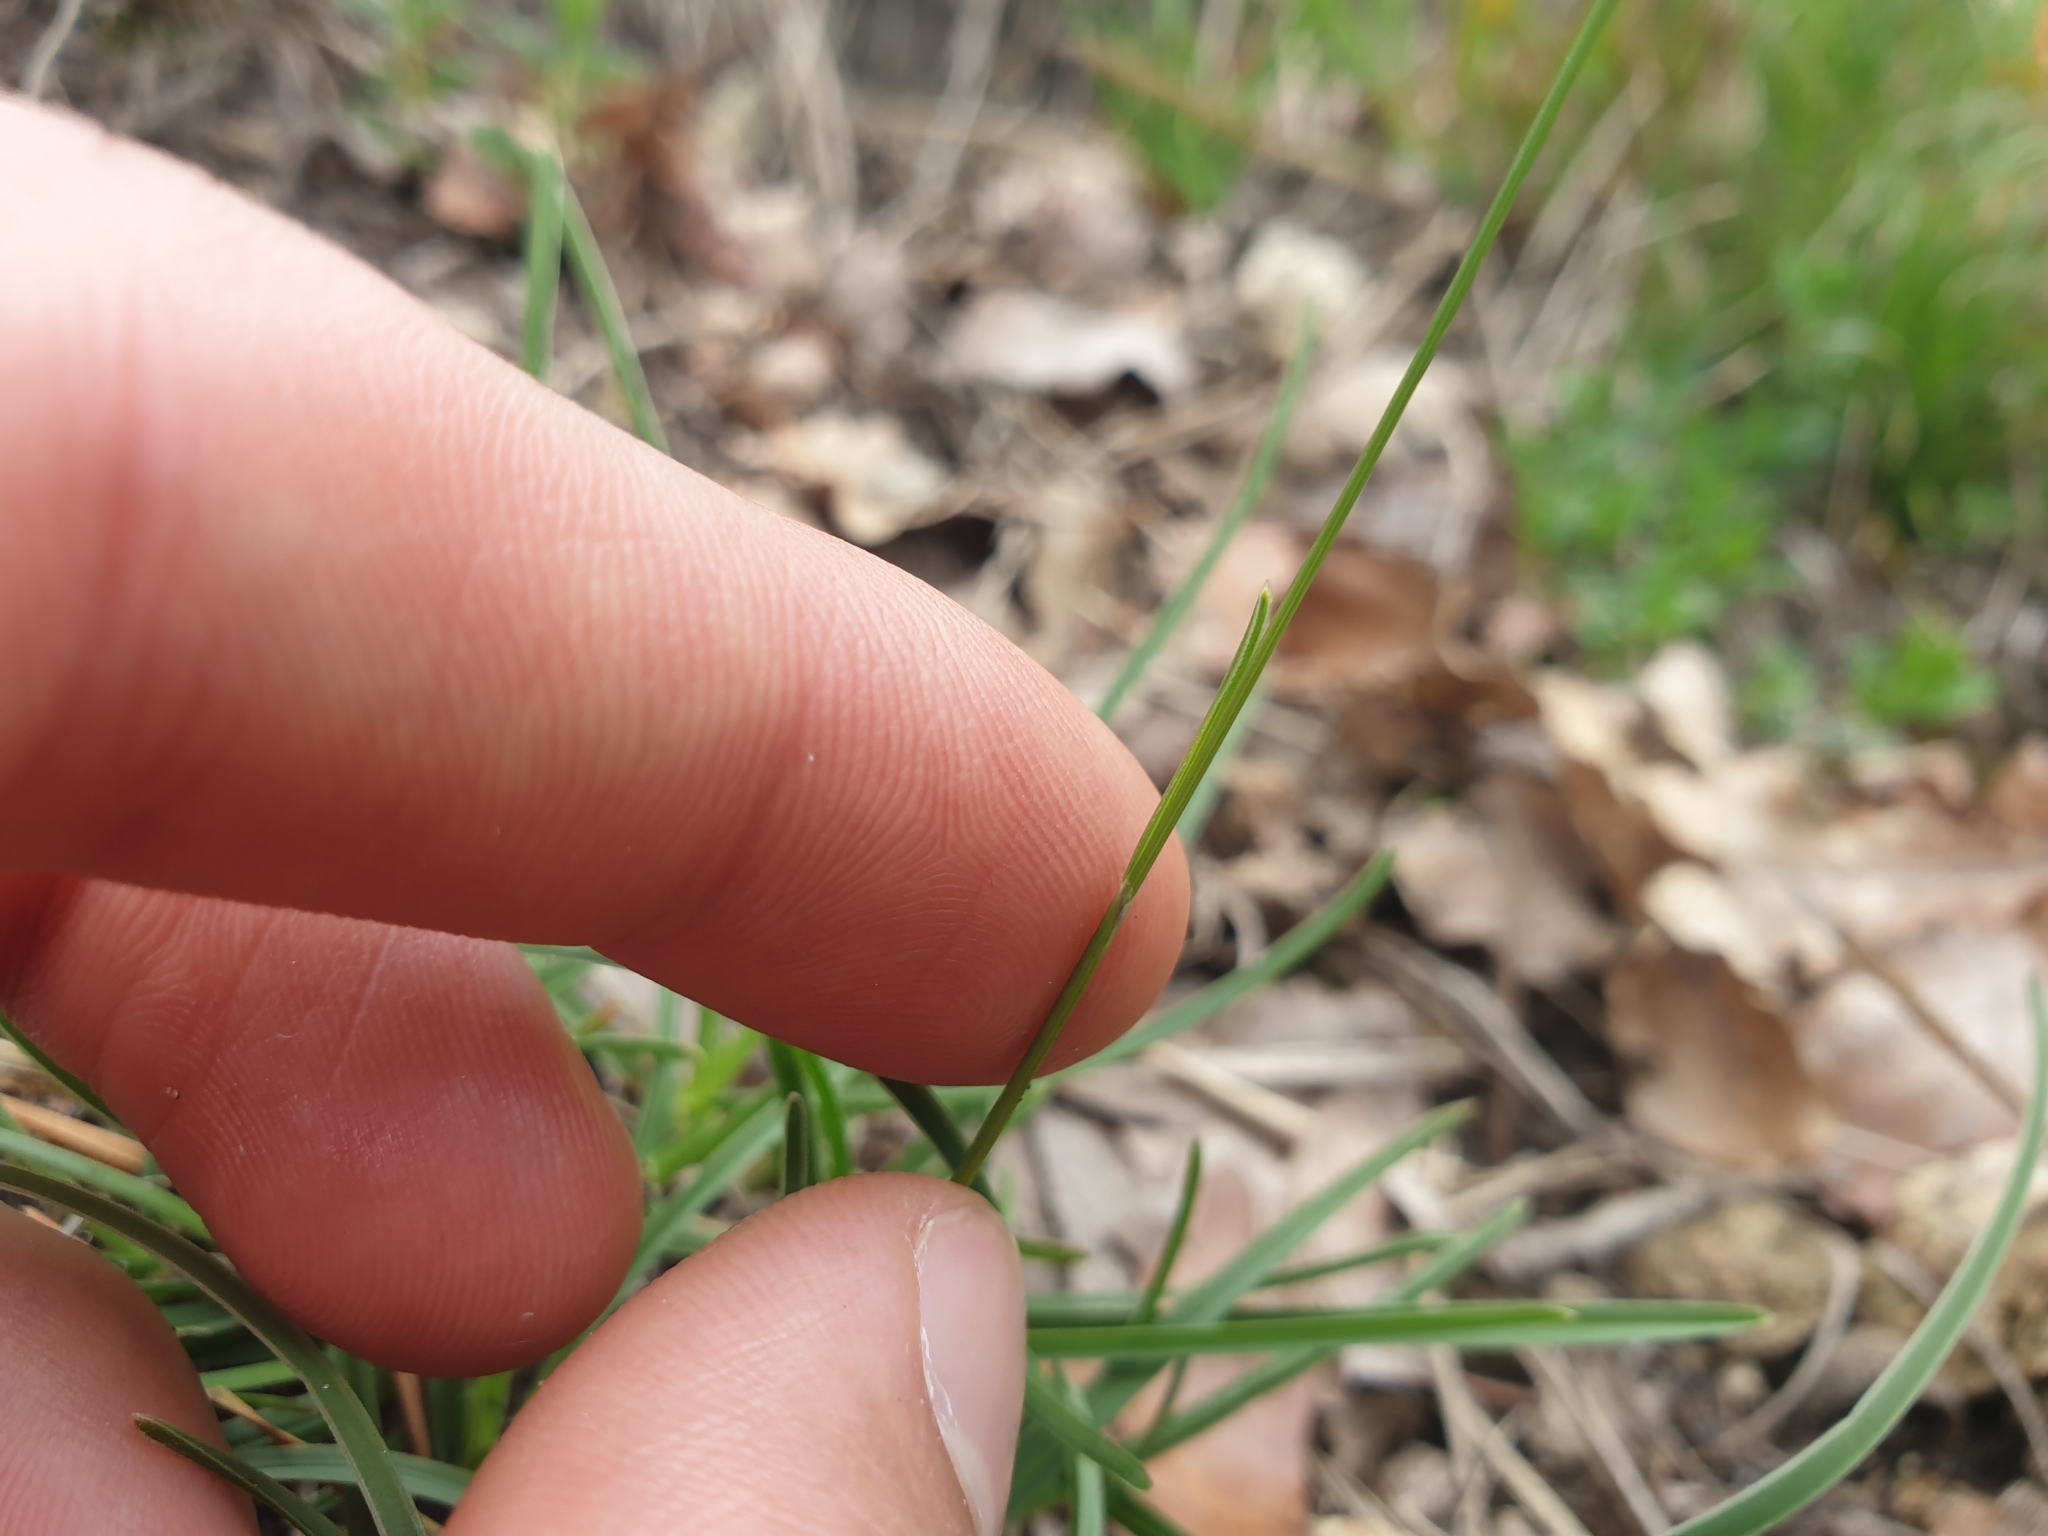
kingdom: Plantae
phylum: Tracheophyta
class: Liliopsida
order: Poales
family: Poaceae
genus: Sesleria
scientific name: Sesleria caerulea
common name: Blue moor-grass
